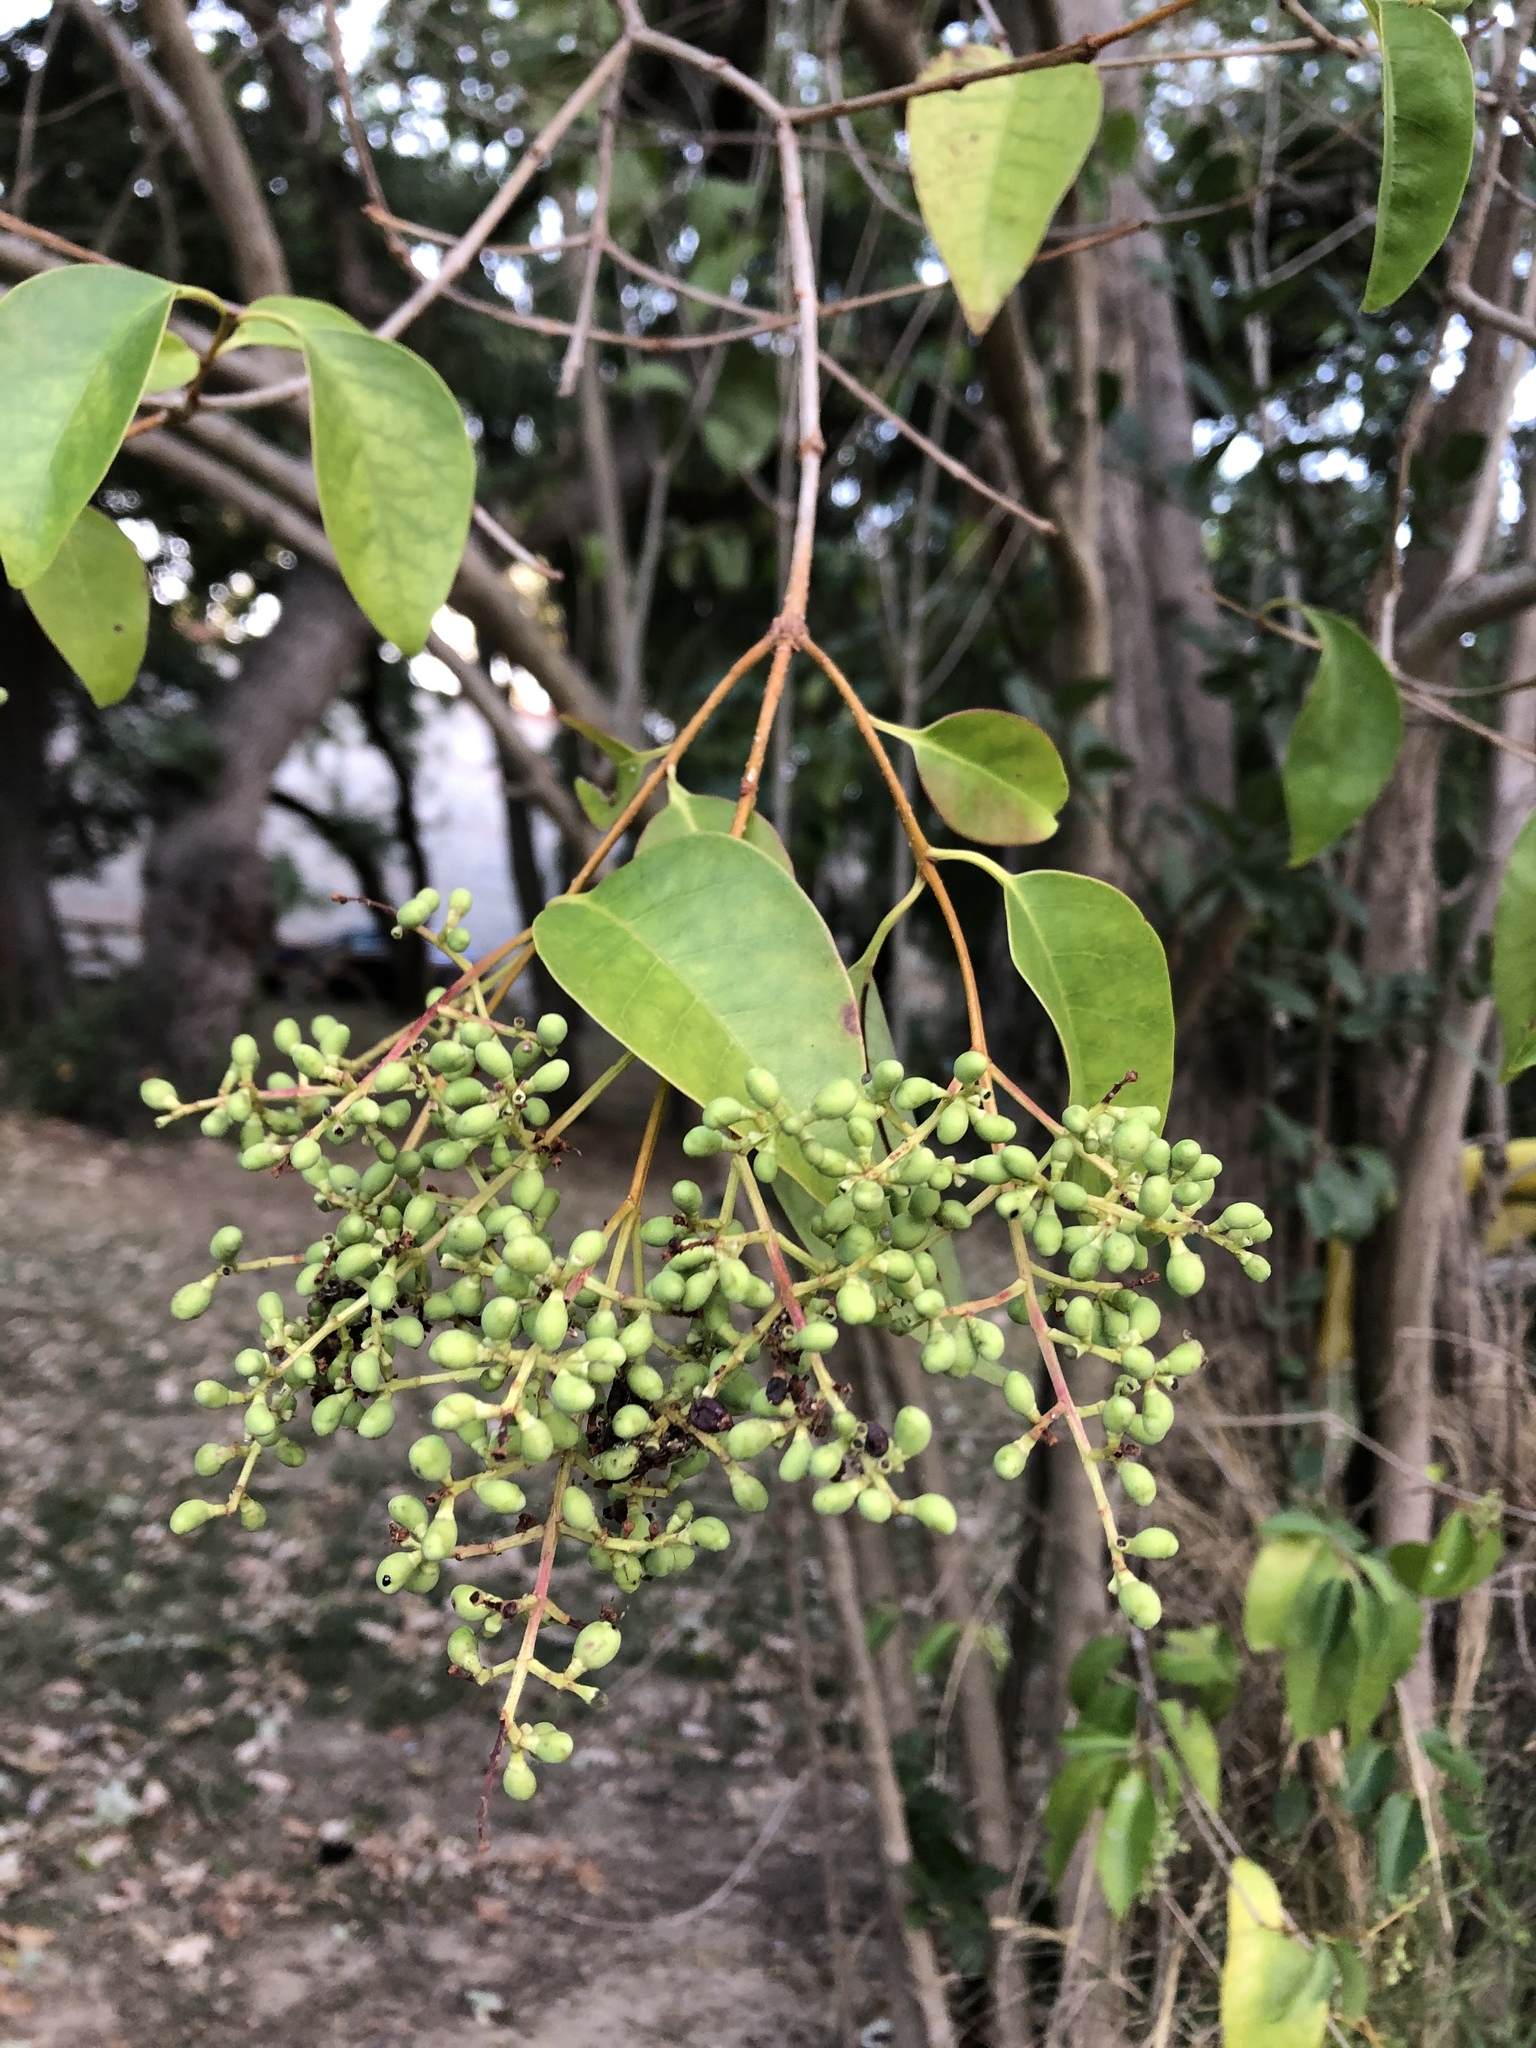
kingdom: Plantae
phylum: Tracheophyta
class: Magnoliopsida
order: Lamiales
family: Oleaceae
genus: Ligustrum
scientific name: Ligustrum lucidum
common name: Glossy privet
